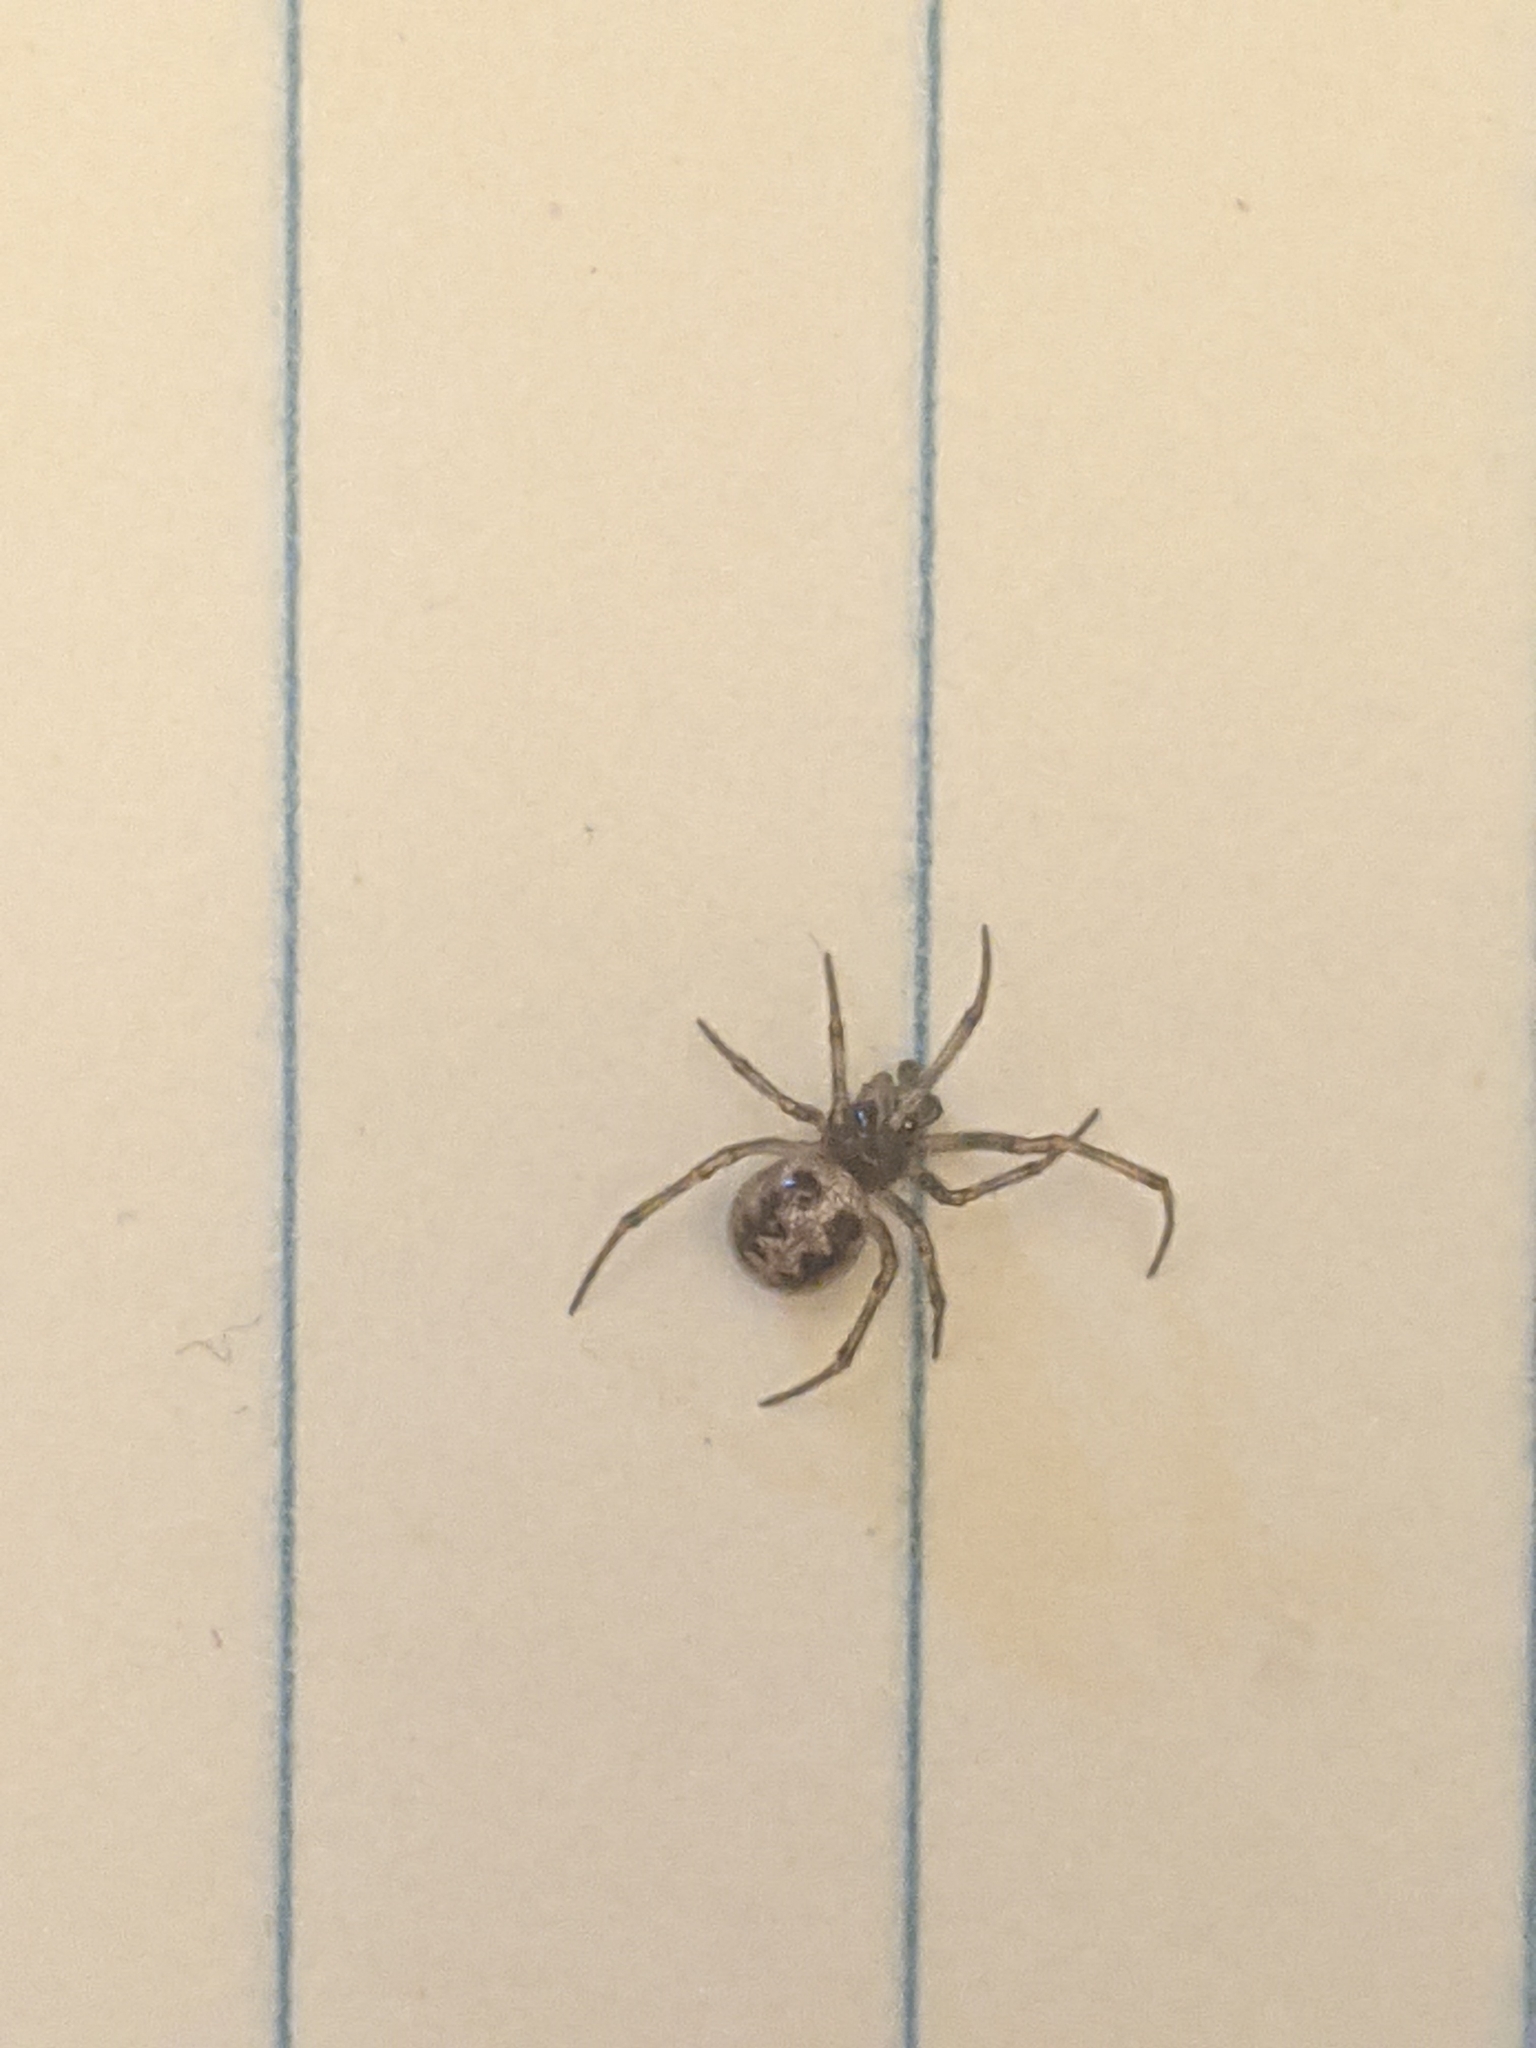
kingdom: Animalia
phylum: Arthropoda
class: Arachnida
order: Araneae
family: Theridiidae
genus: Steatoda
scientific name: Steatoda triangulosa
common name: Triangulate bud spider
